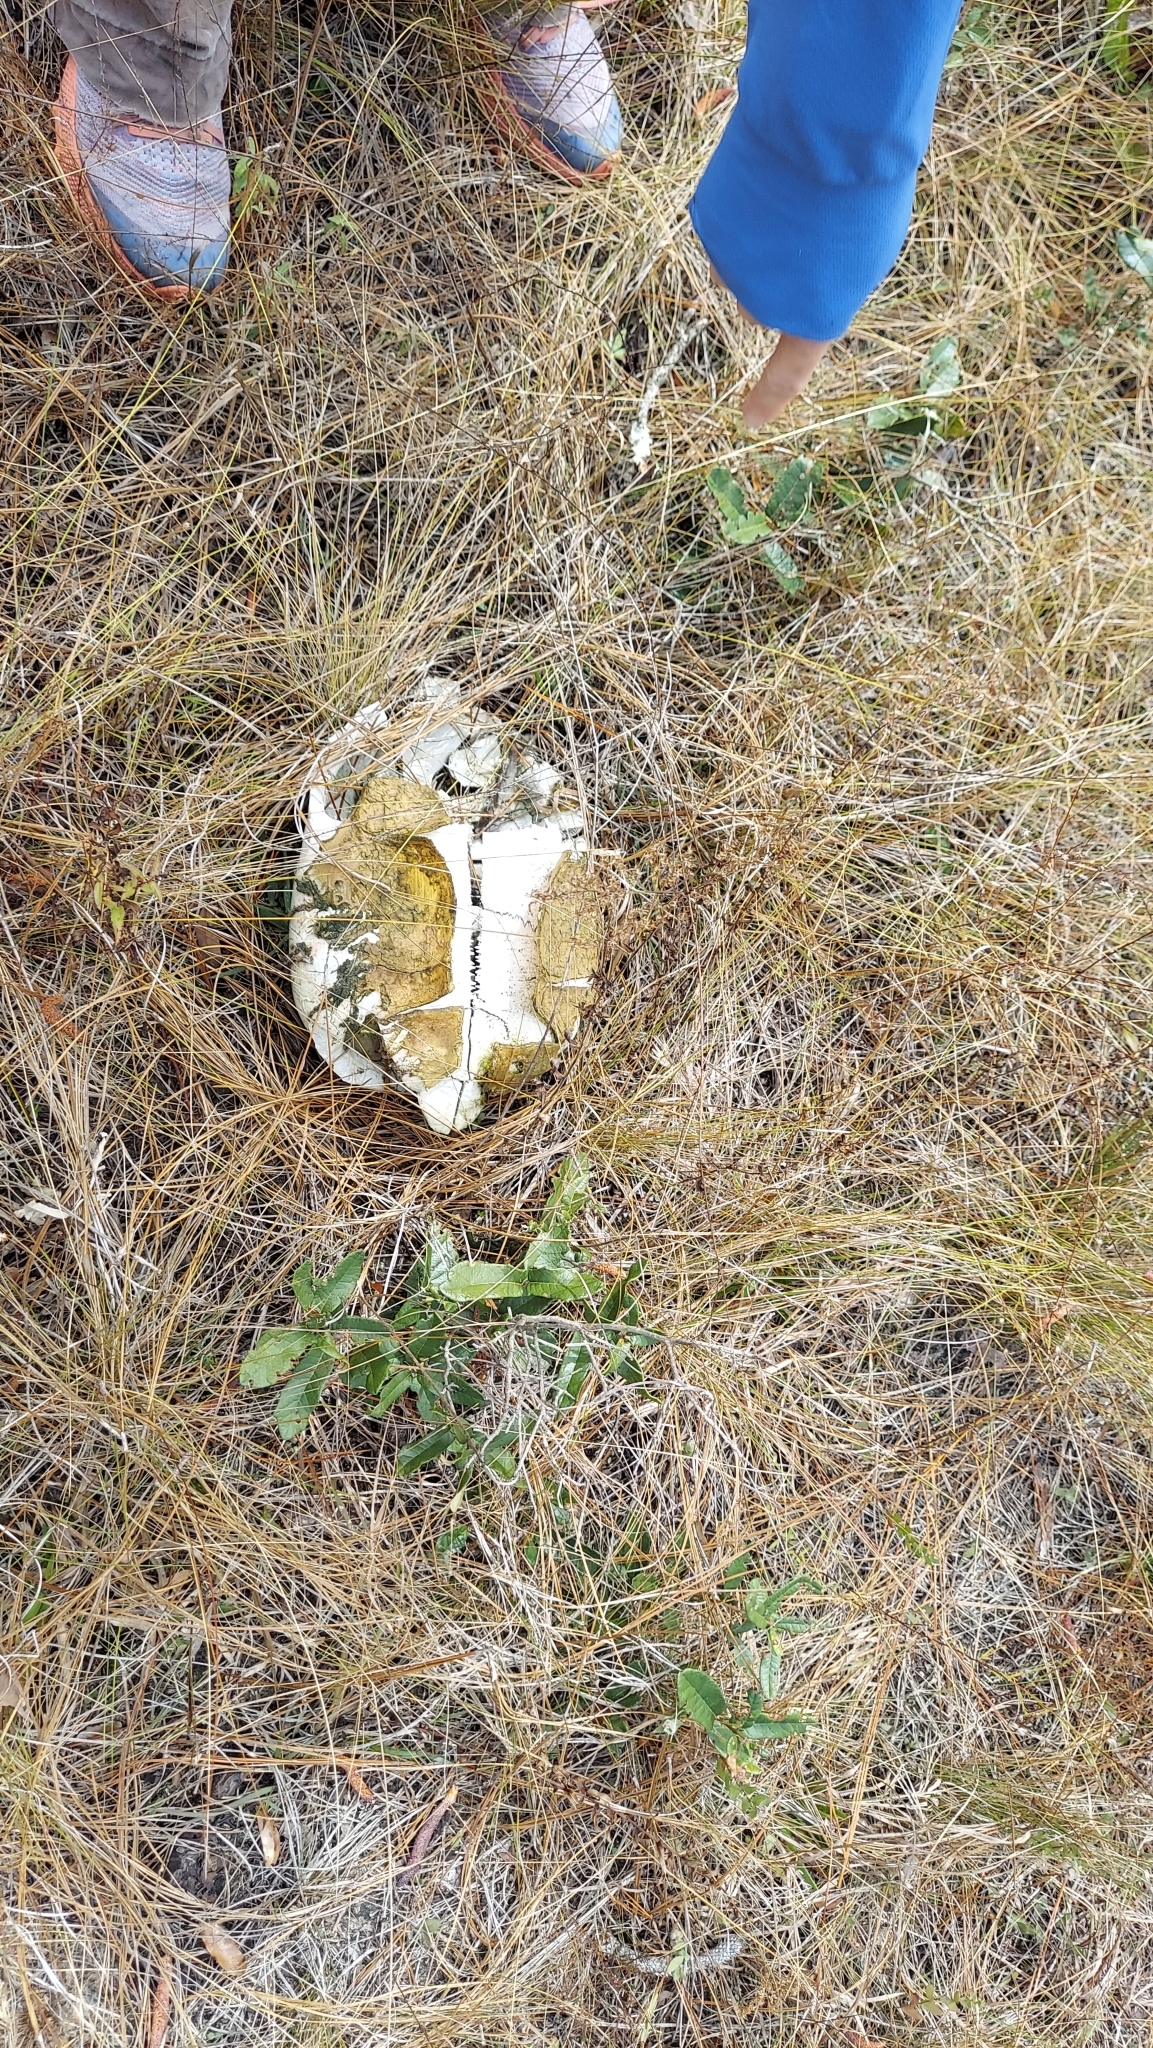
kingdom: Animalia
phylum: Chordata
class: Testudines
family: Testudinidae
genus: Gopherus
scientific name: Gopherus polyphemus
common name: Florida gopher tortoise
